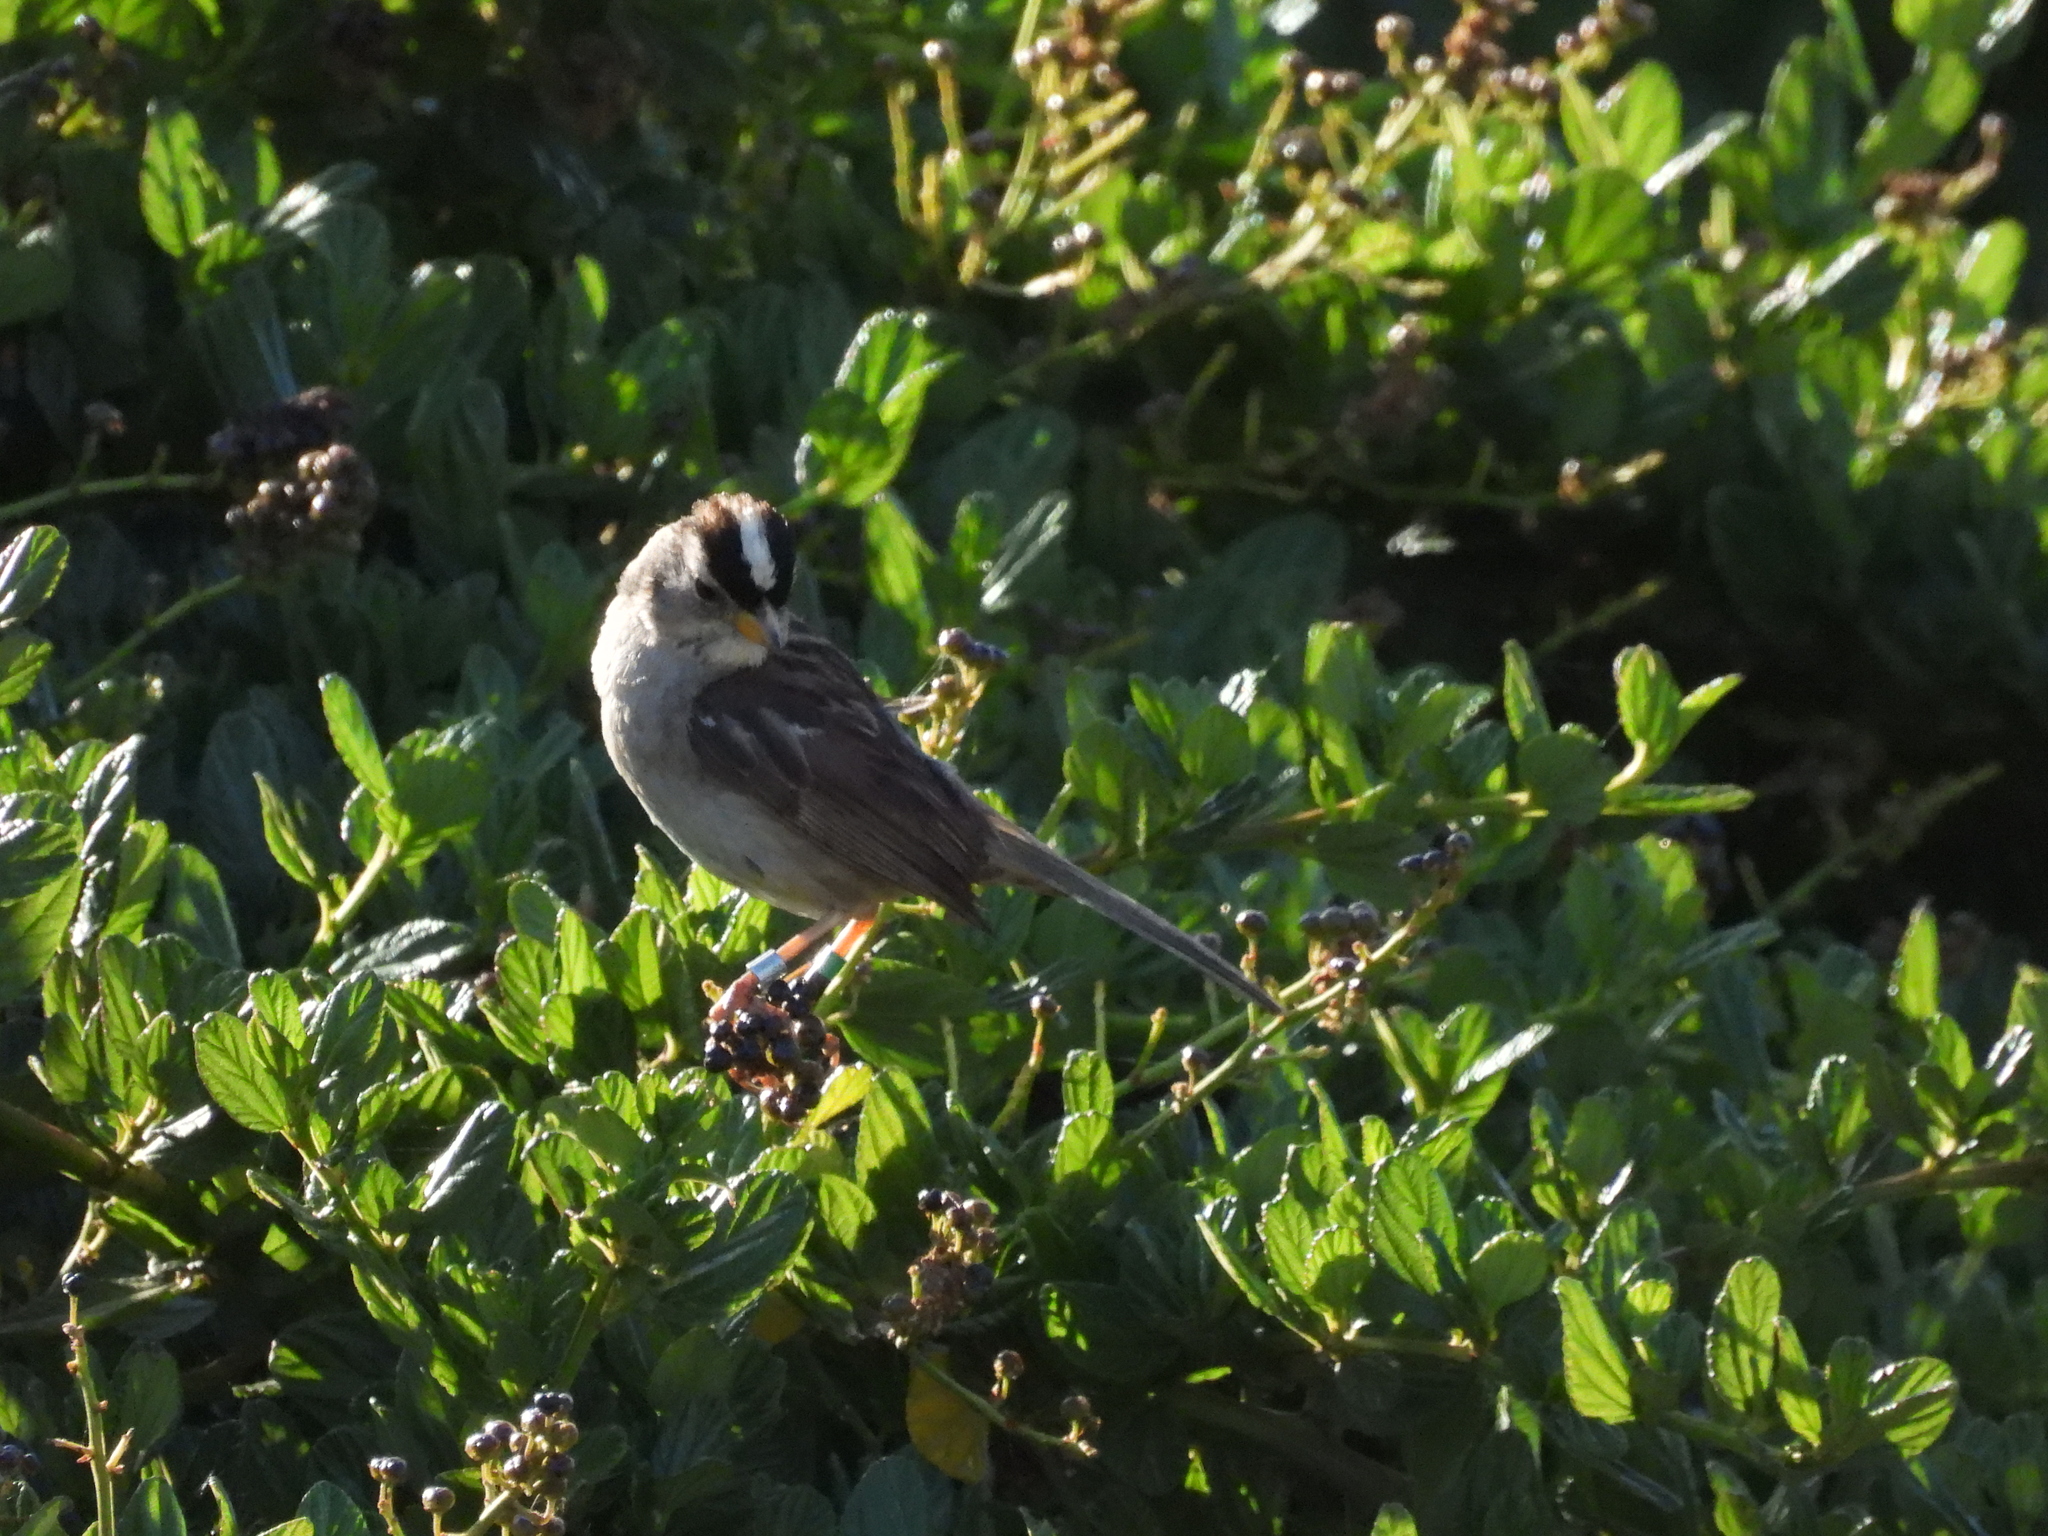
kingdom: Animalia
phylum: Chordata
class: Aves
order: Passeriformes
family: Passerellidae
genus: Zonotrichia
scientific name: Zonotrichia leucophrys
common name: White-crowned sparrow
